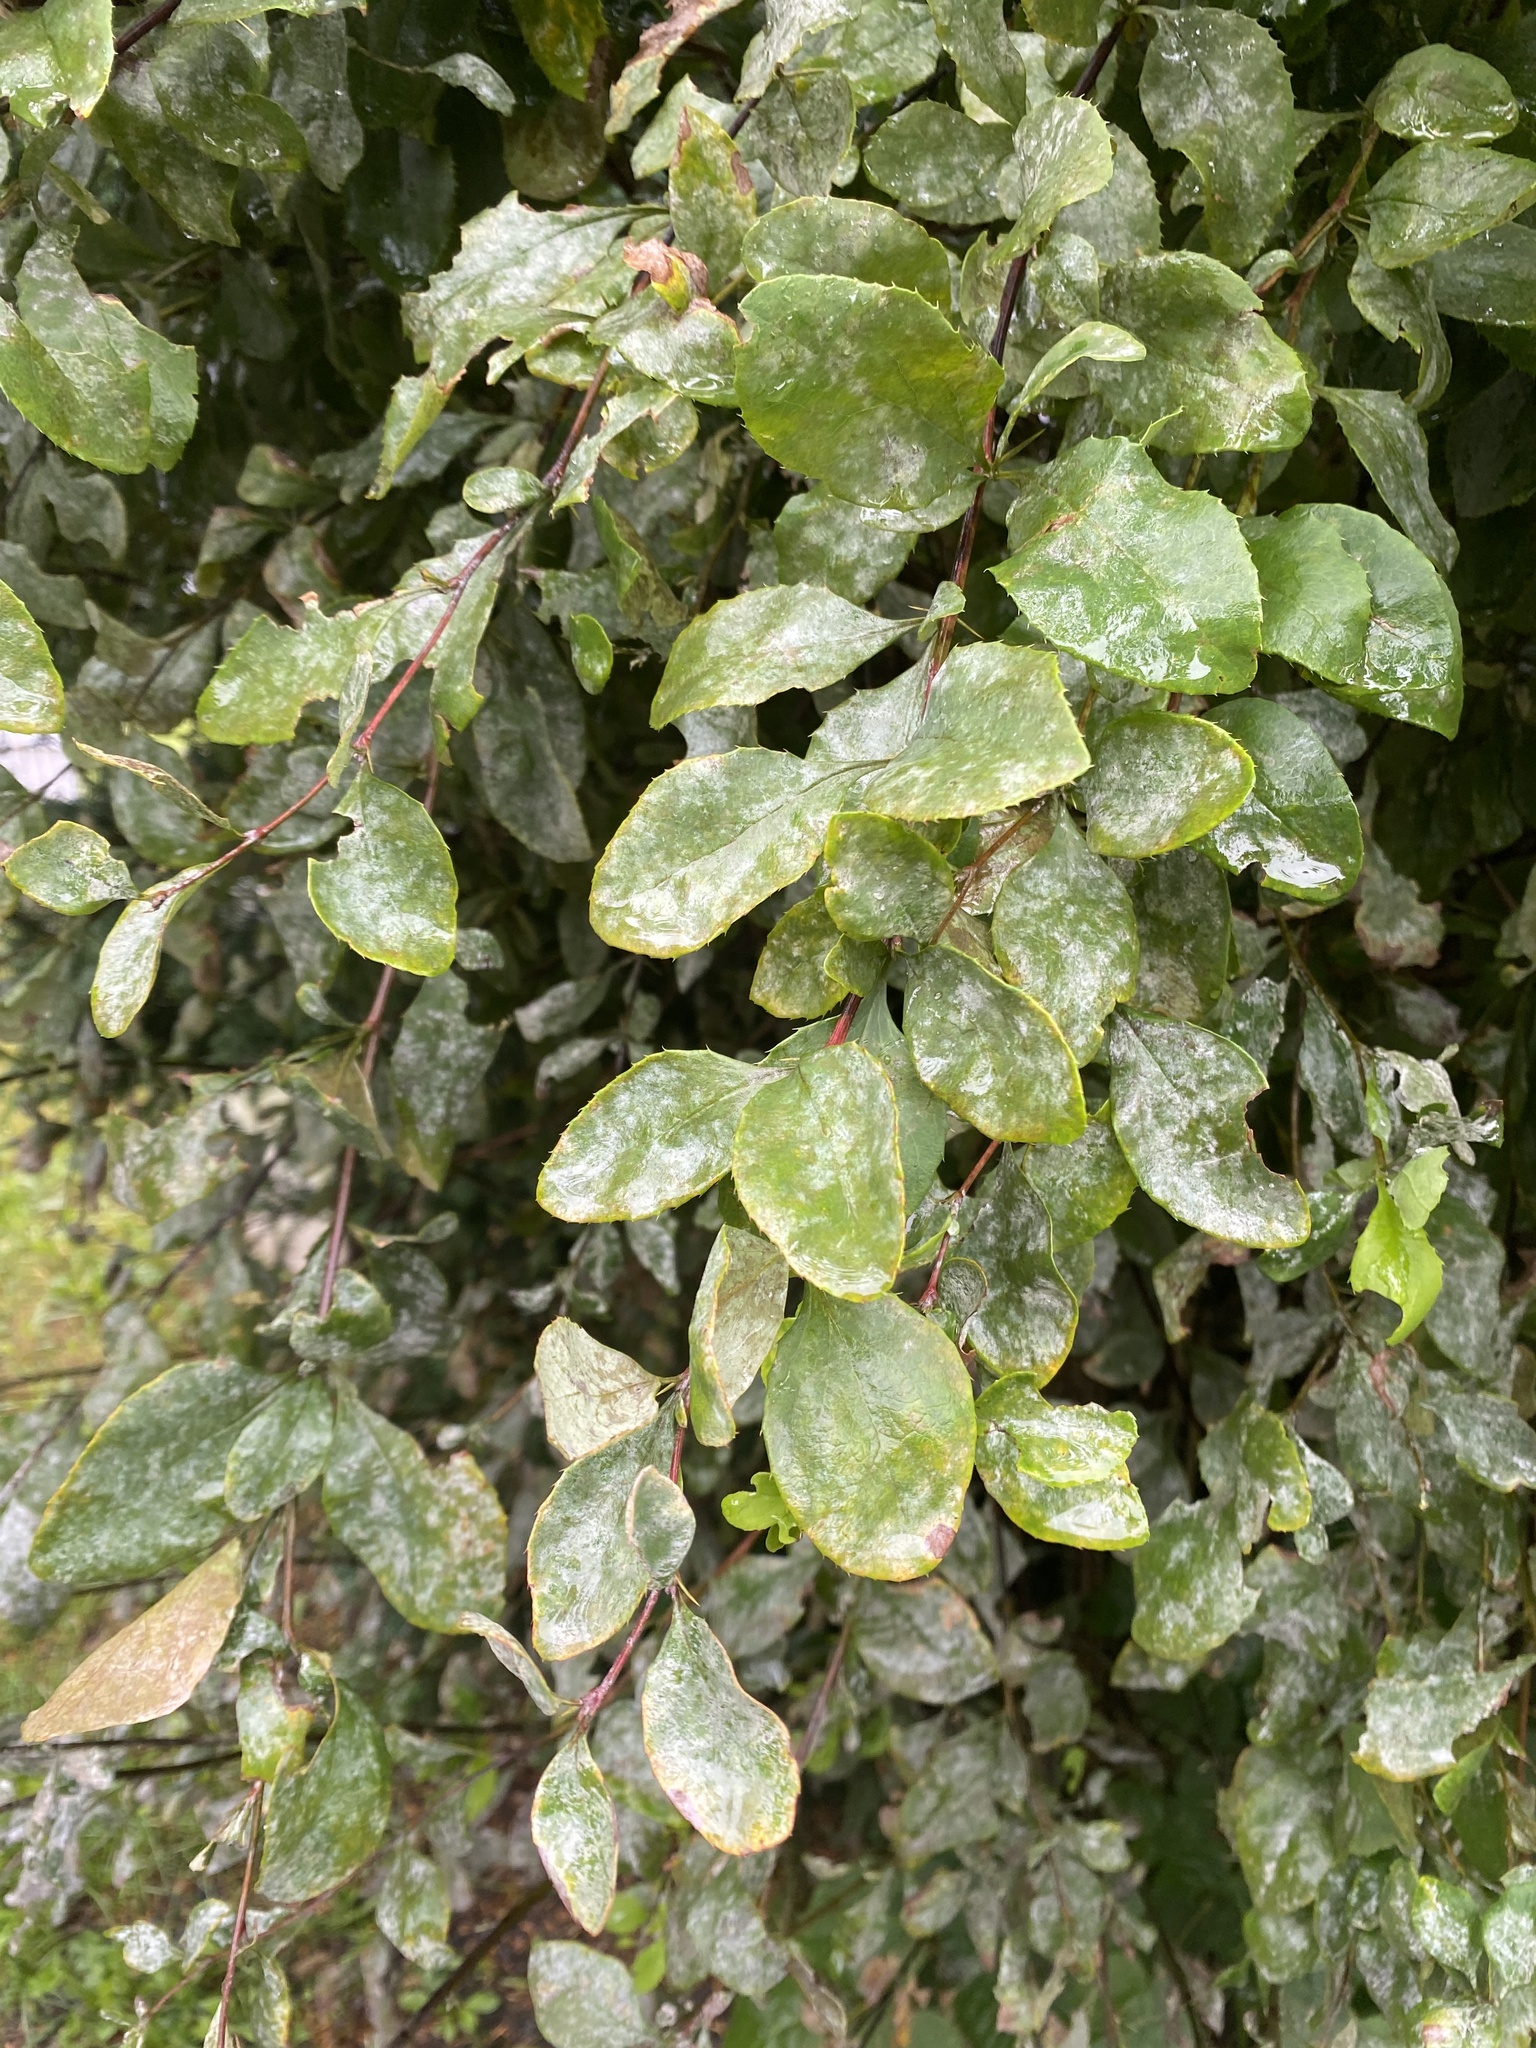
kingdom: Fungi
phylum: Ascomycota
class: Leotiomycetes
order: Helotiales
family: Erysiphaceae
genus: Erysiphe
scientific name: Erysiphe berberidis
